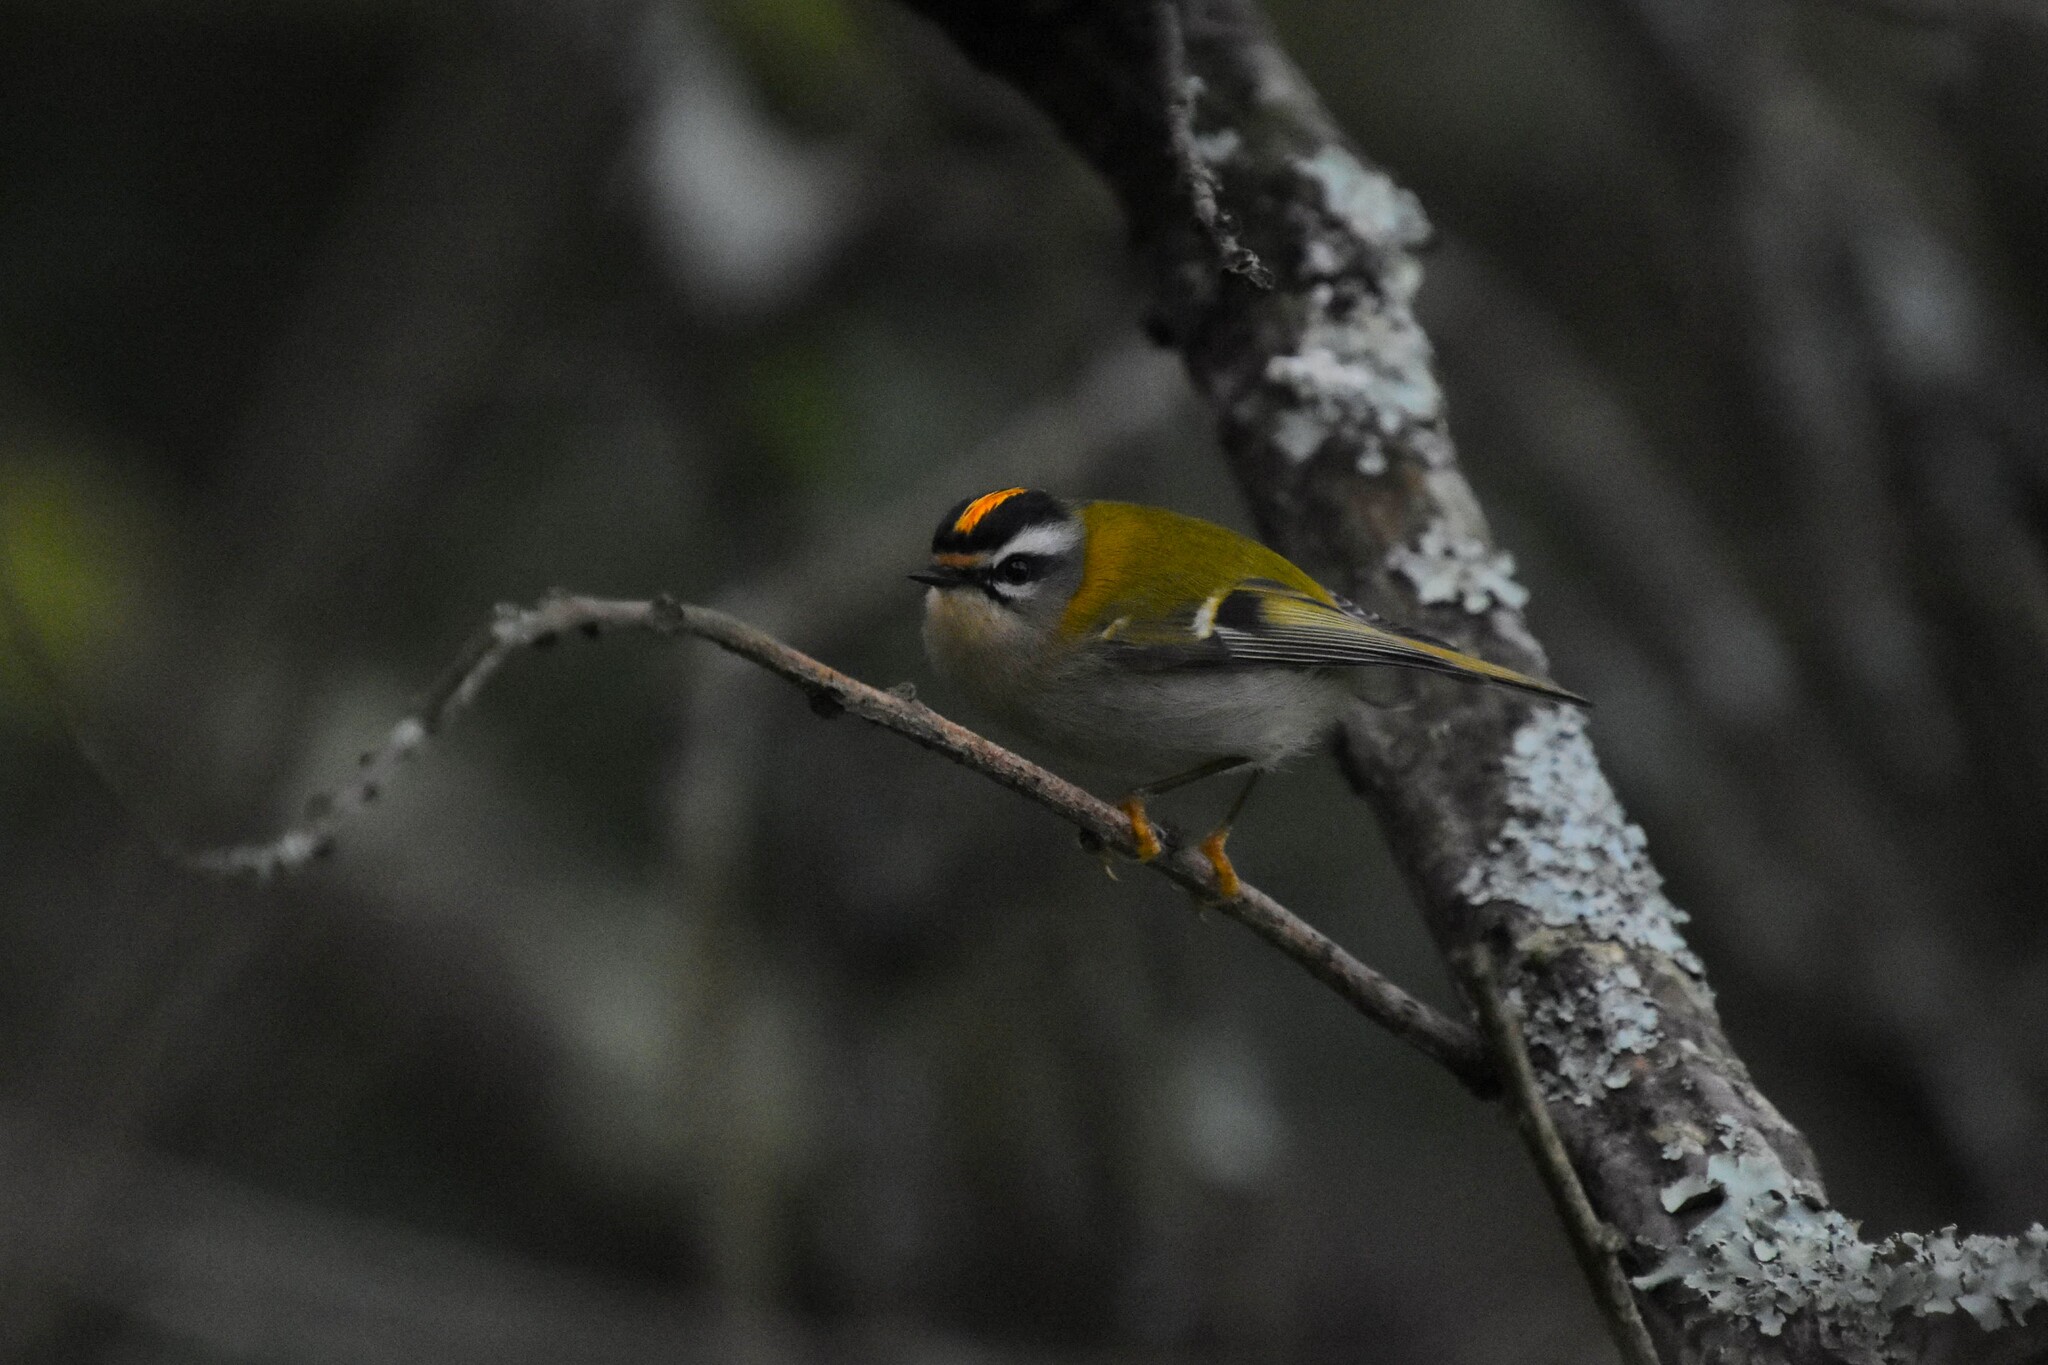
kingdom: Animalia
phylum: Chordata
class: Aves
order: Passeriformes
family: Regulidae
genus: Regulus
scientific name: Regulus ignicapilla
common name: Firecrest
